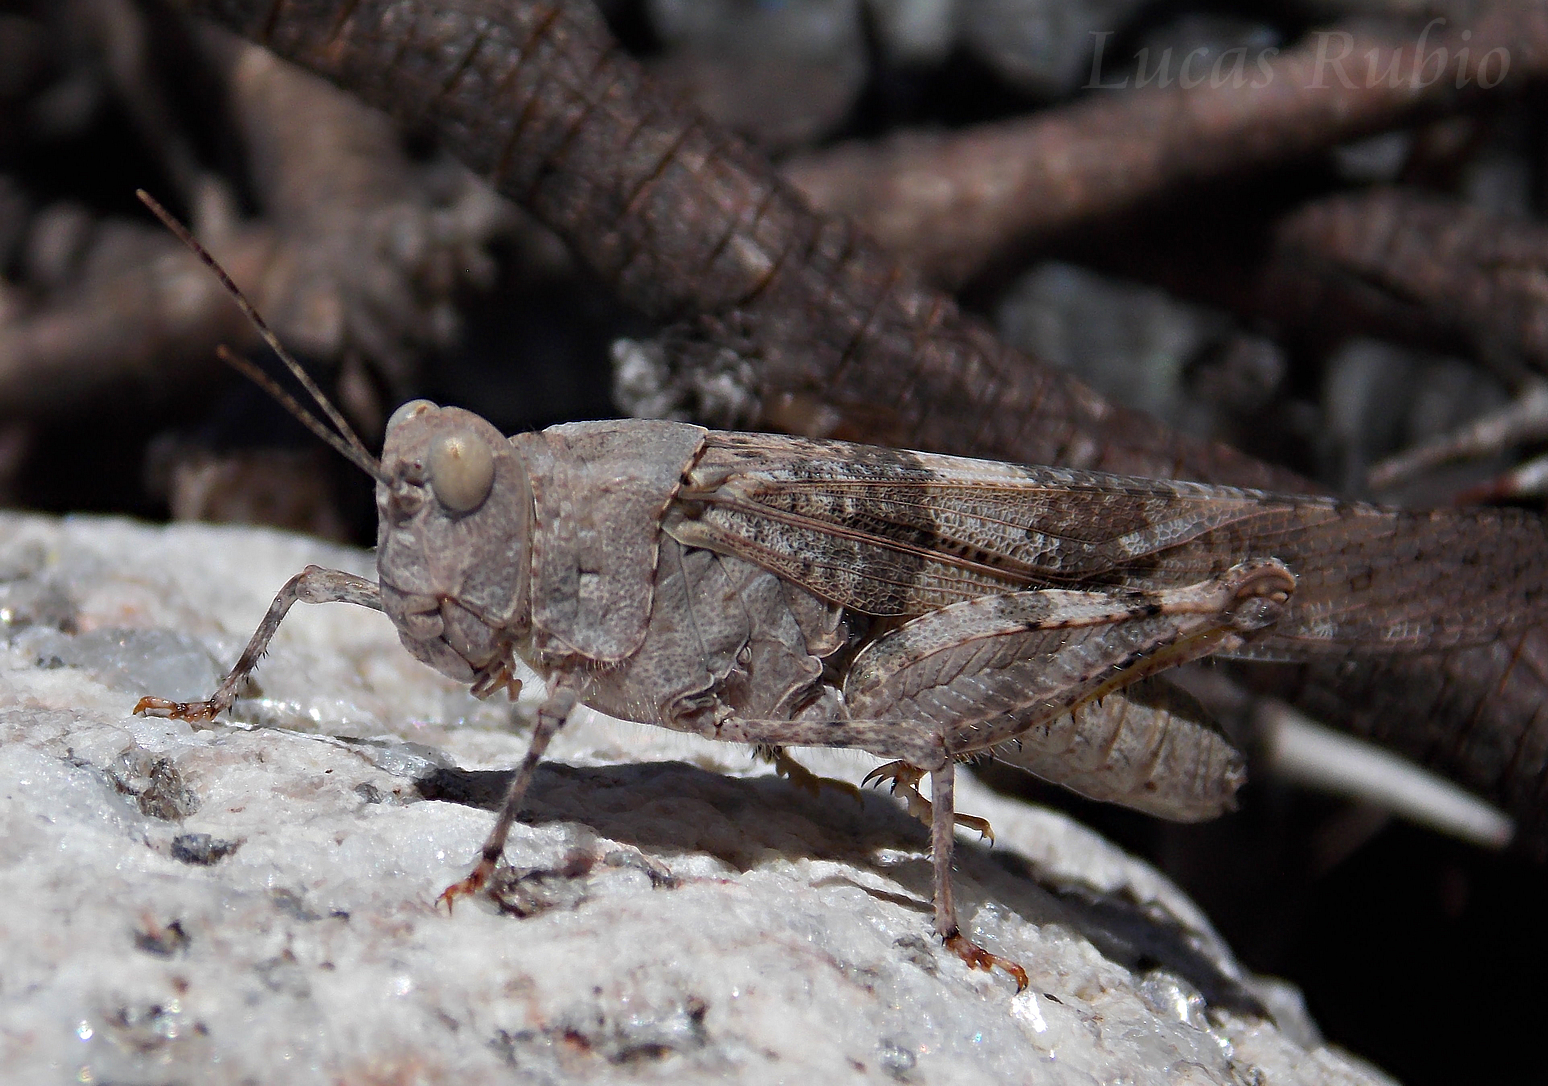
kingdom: Animalia
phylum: Arthropoda
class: Insecta
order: Orthoptera
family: Acrididae
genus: Trimerotropis
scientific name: Trimerotropis pallidipennis
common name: Pallid-winged grasshopper
